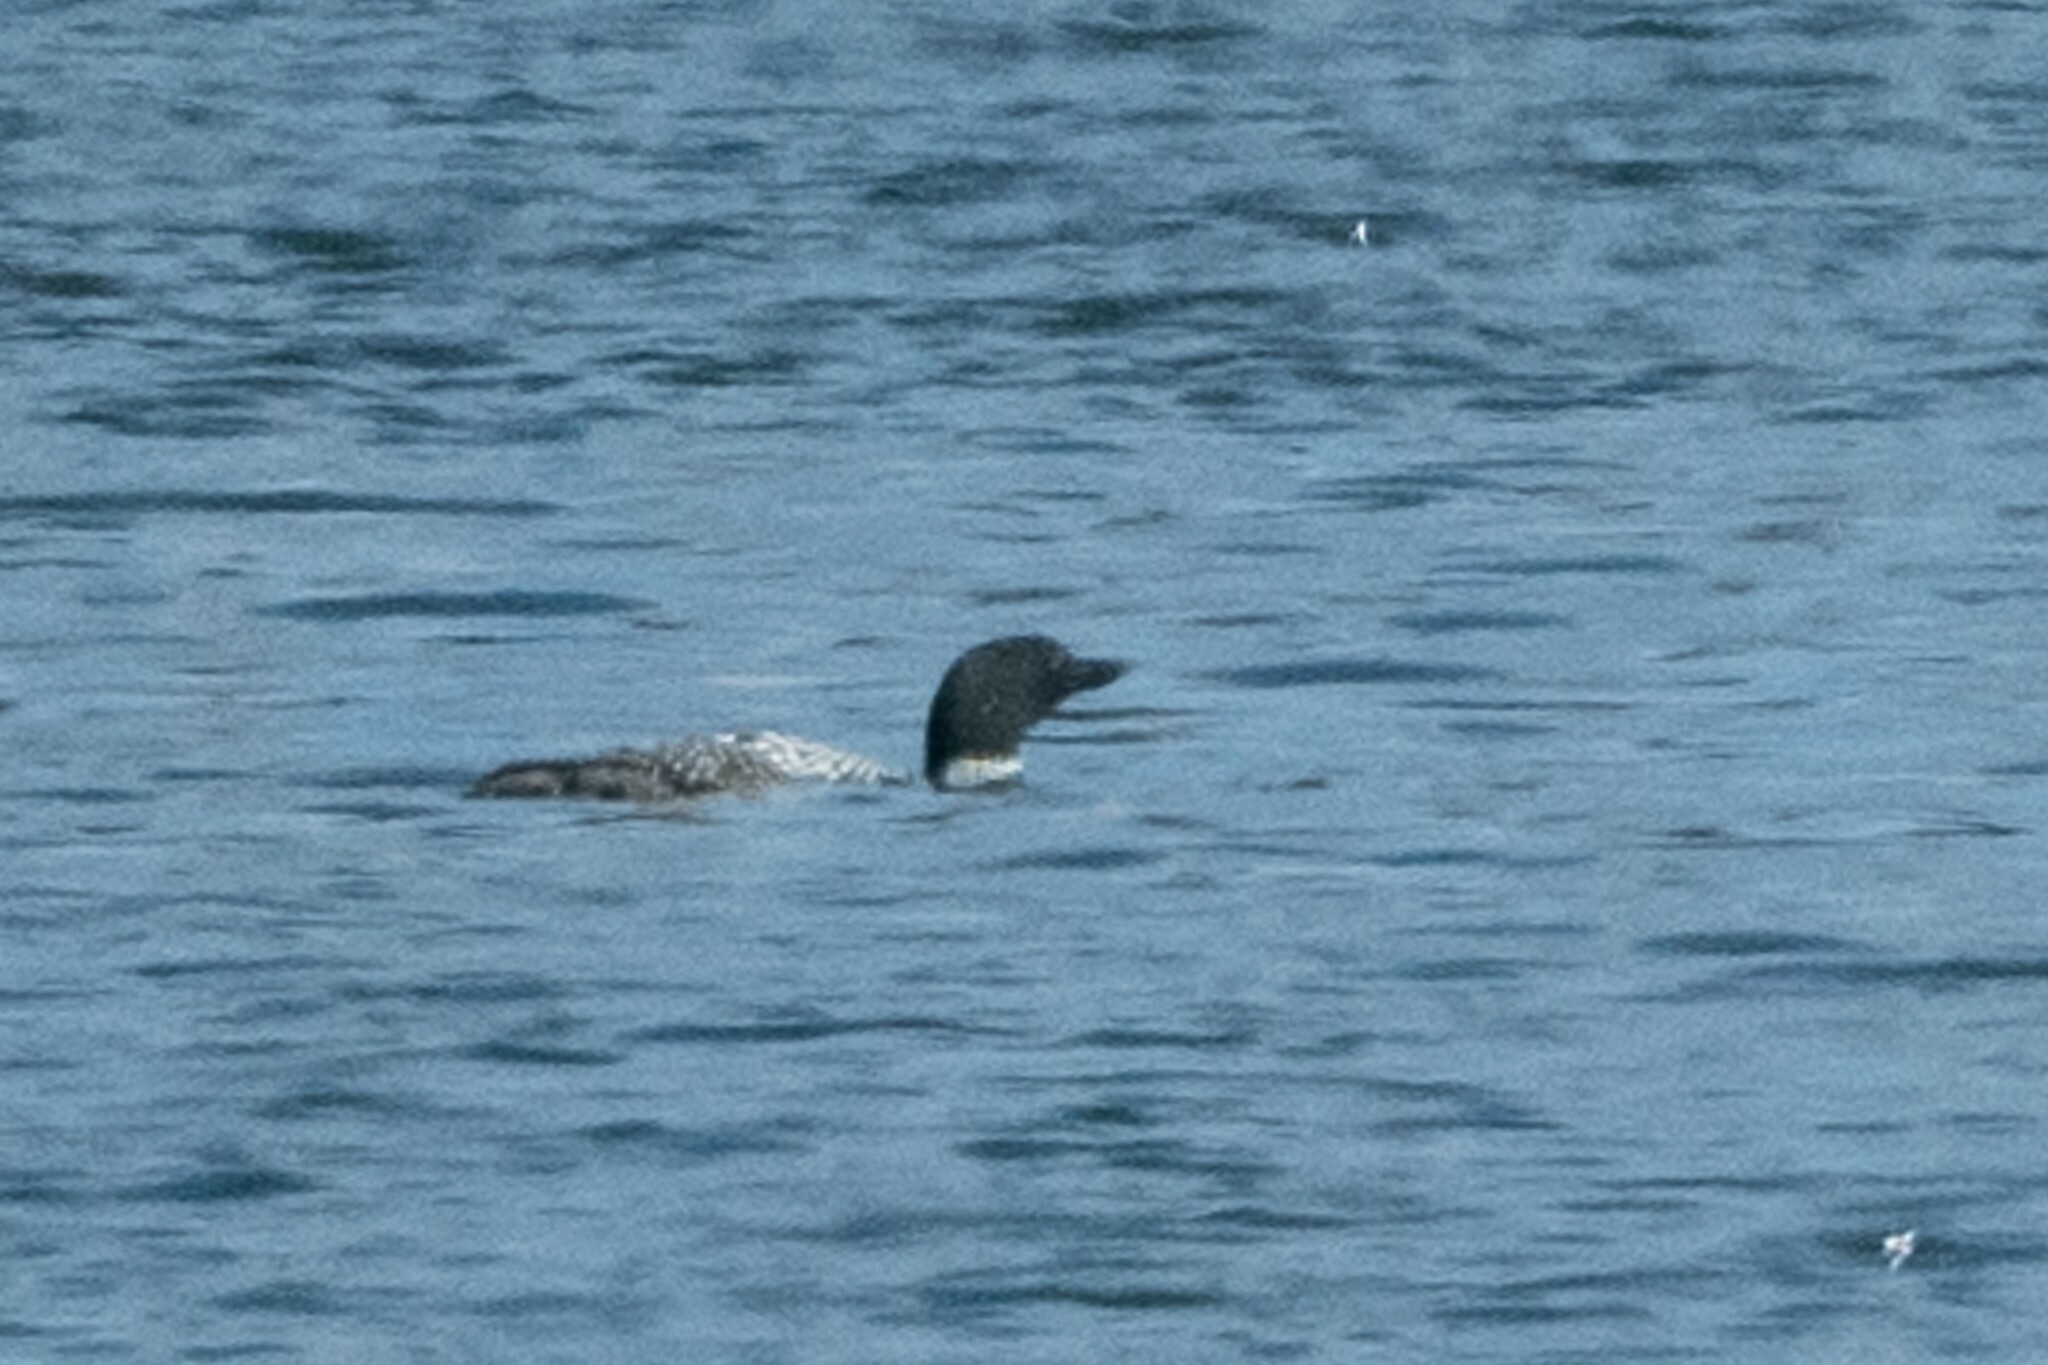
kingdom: Animalia
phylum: Chordata
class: Aves
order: Gaviiformes
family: Gaviidae
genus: Gavia
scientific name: Gavia immer
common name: Common loon
